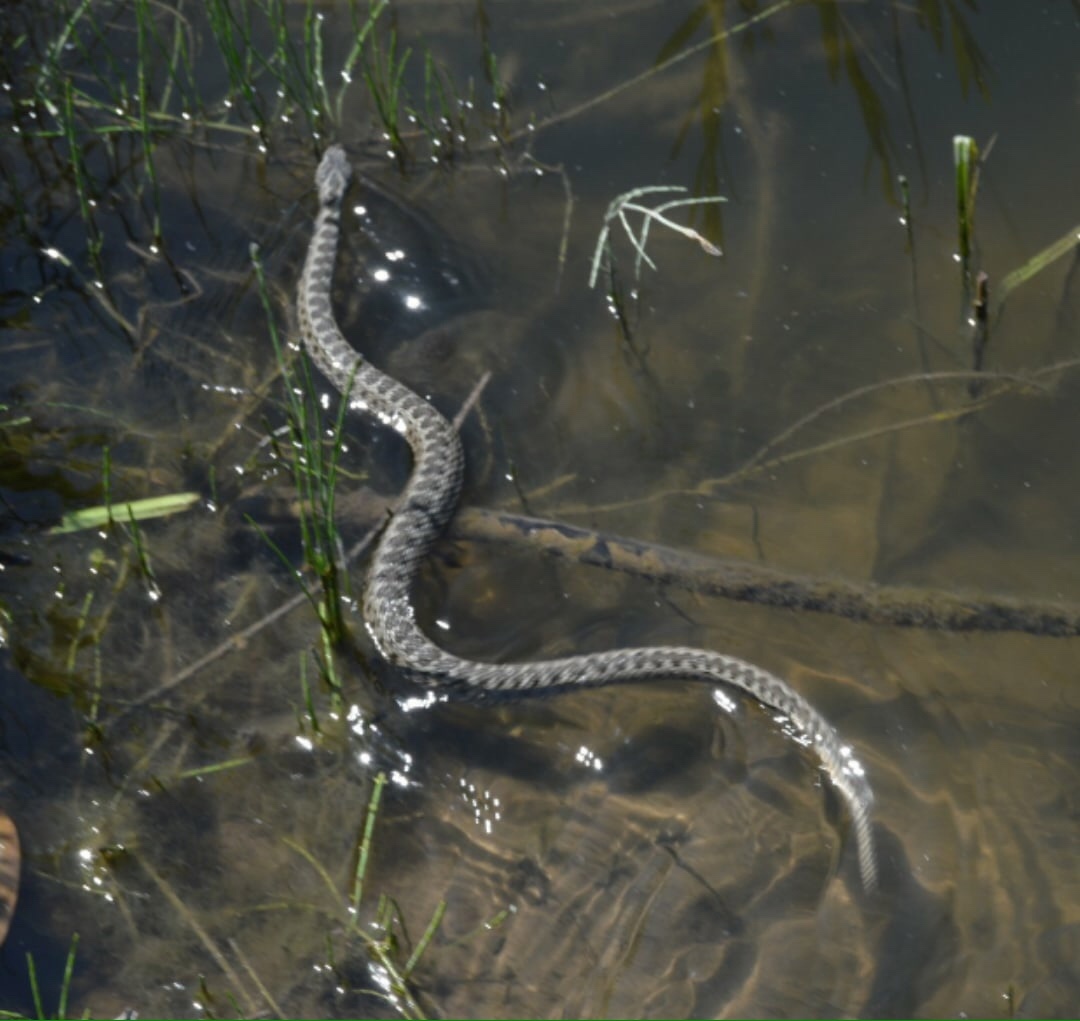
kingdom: Animalia
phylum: Chordata
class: Squamata
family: Viperidae
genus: Vipera
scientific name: Vipera renardi
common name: Eastern steppe viper
